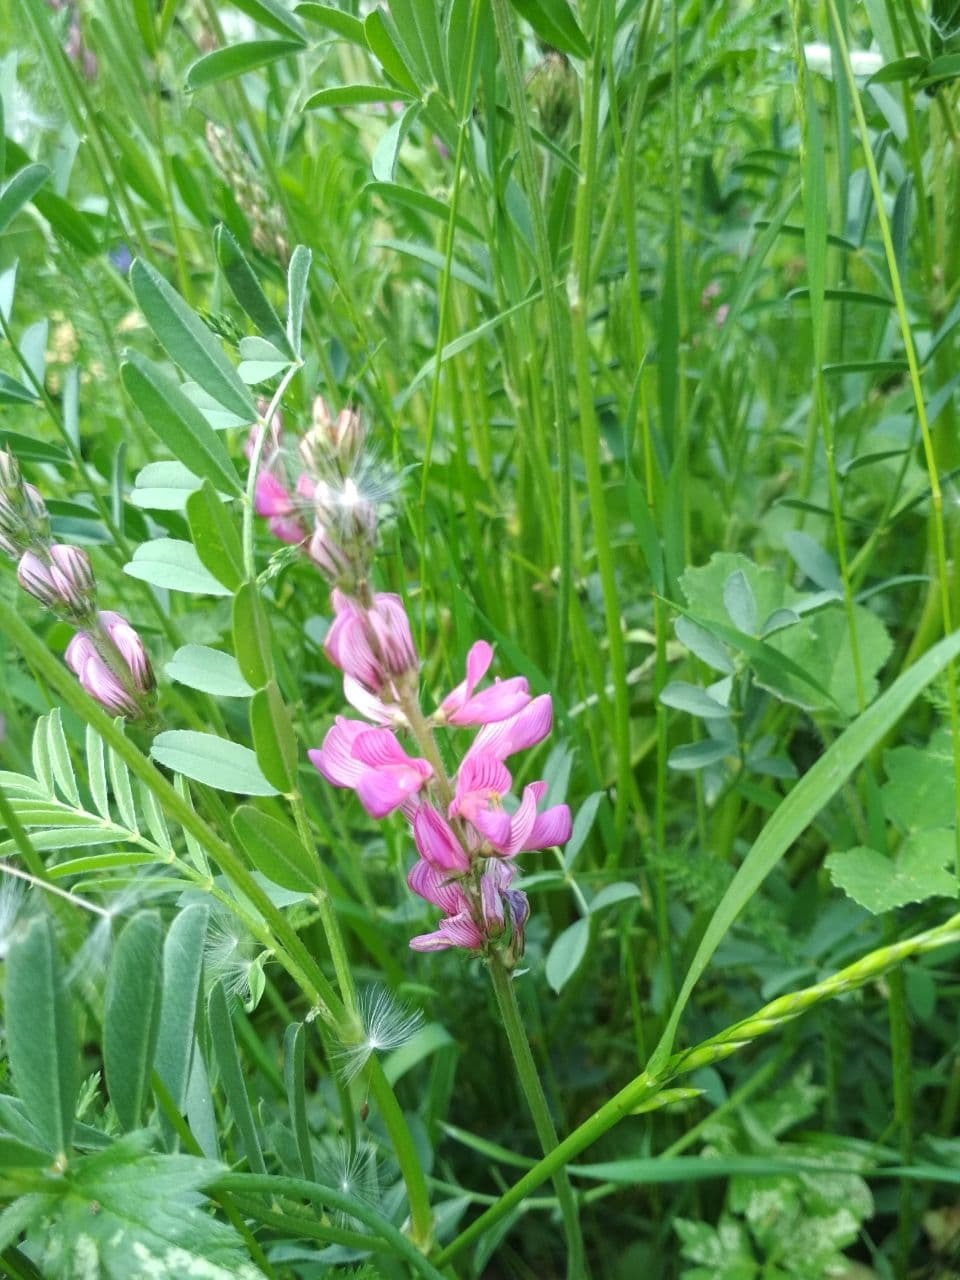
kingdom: Plantae
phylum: Tracheophyta
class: Magnoliopsida
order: Fabales
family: Fabaceae
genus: Onobrychis
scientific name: Onobrychis viciifolia
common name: Sainfoin
